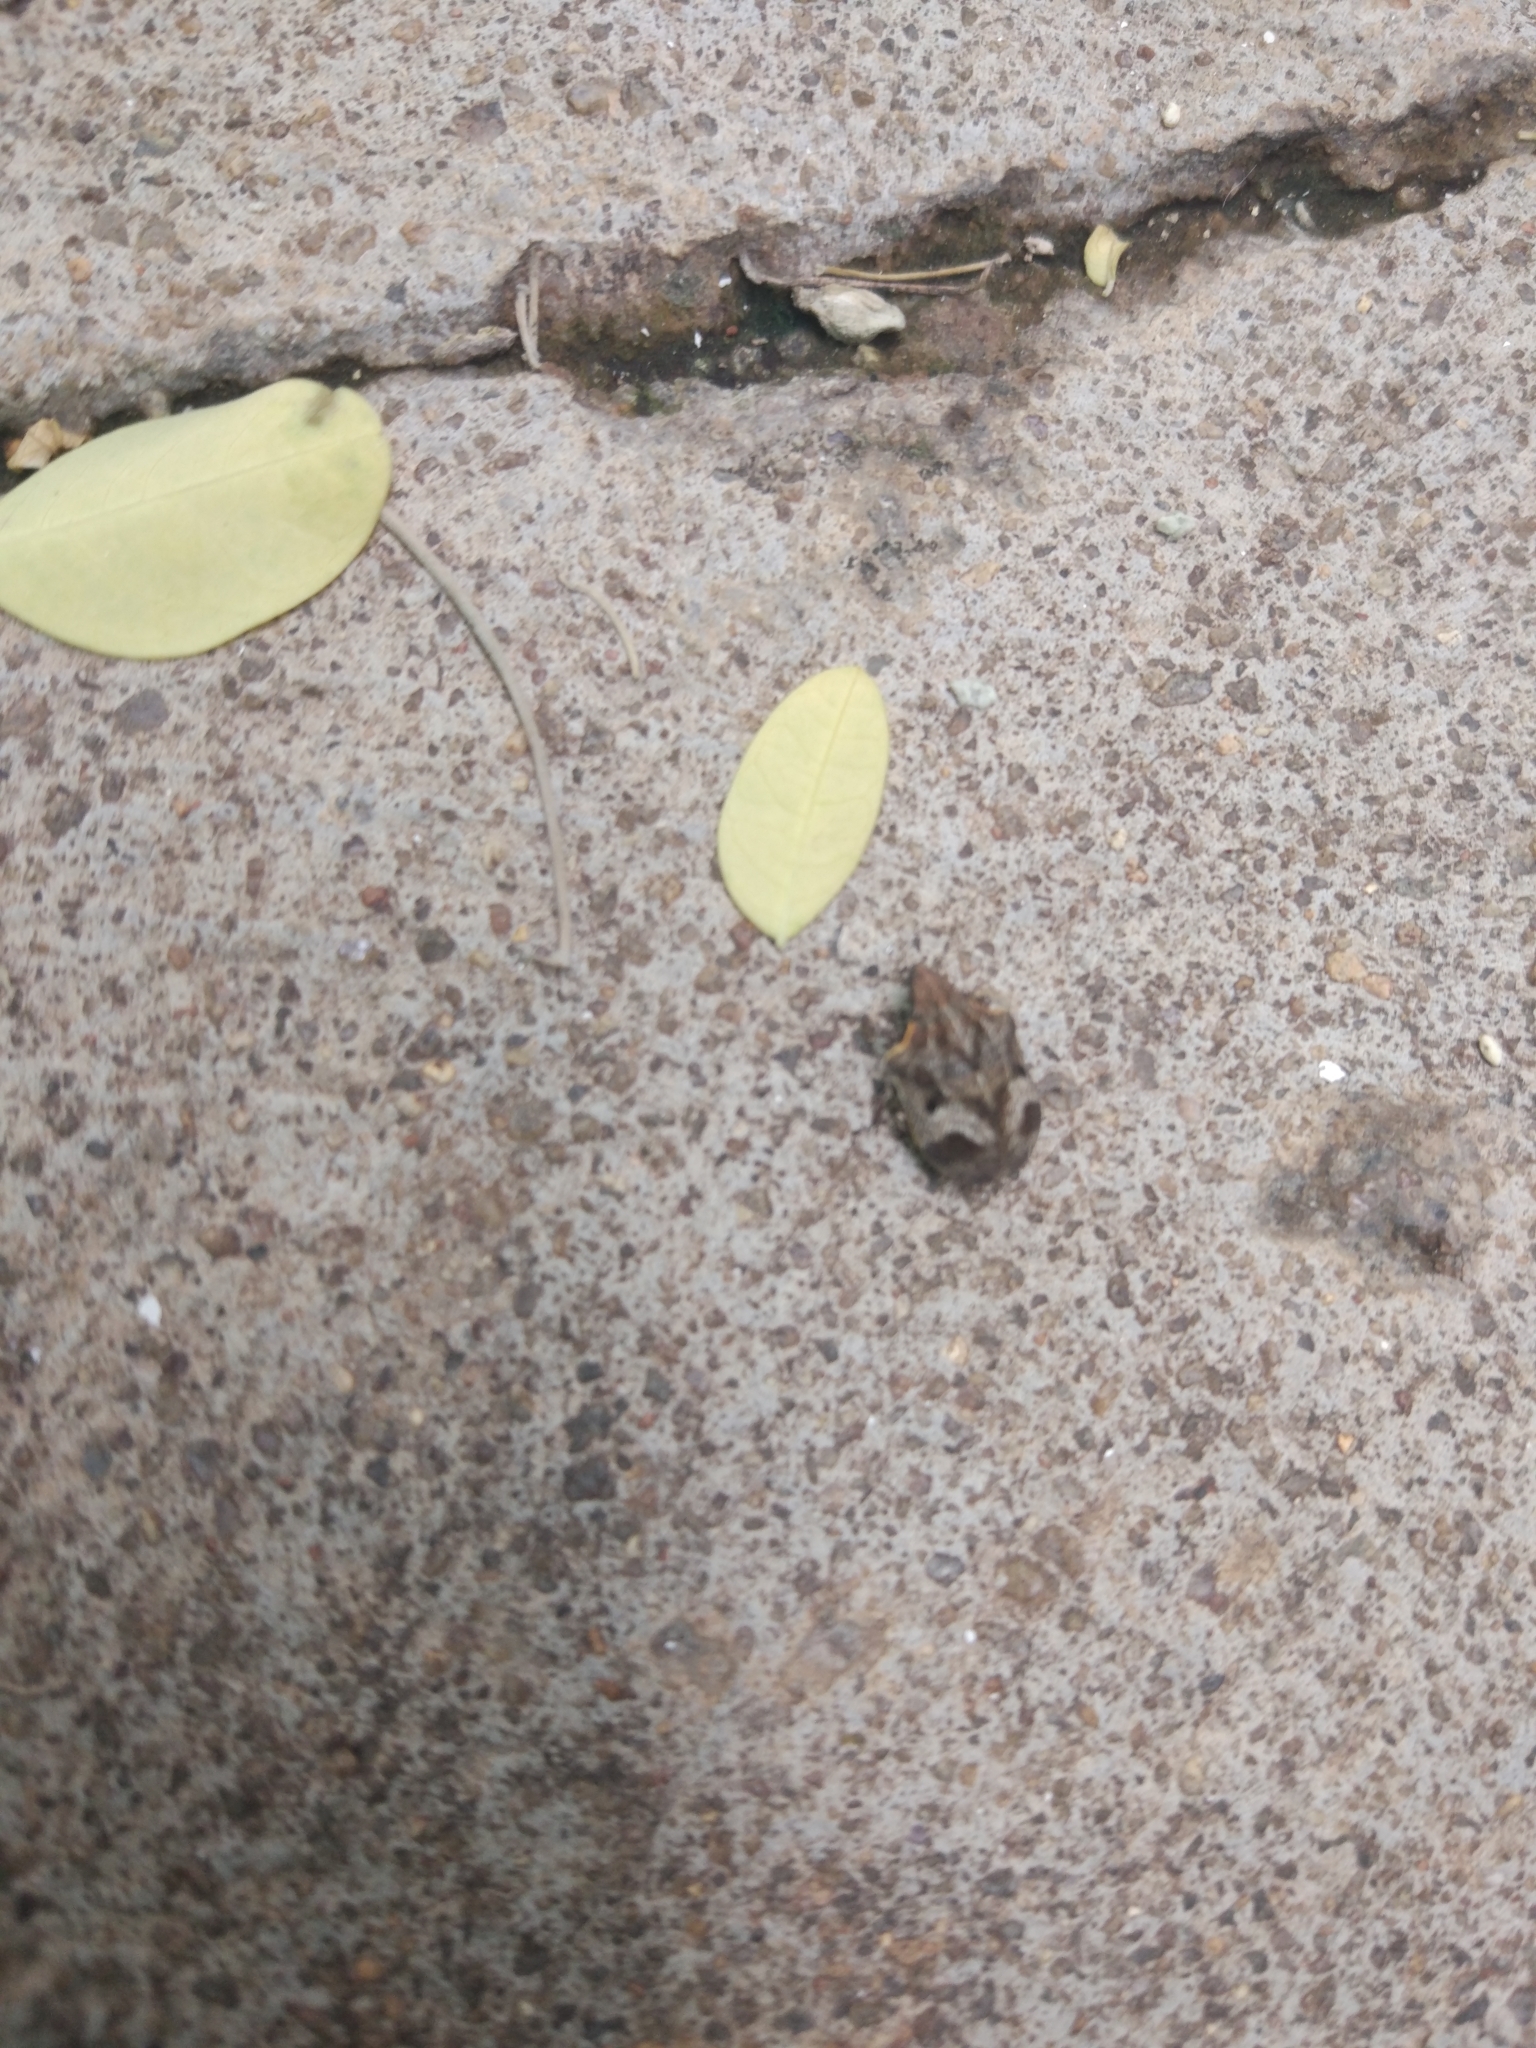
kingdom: Animalia
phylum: Arthropoda
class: Insecta
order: Hemiptera
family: Scutelleridae
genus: Hotea
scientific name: Hotea curculionoides
